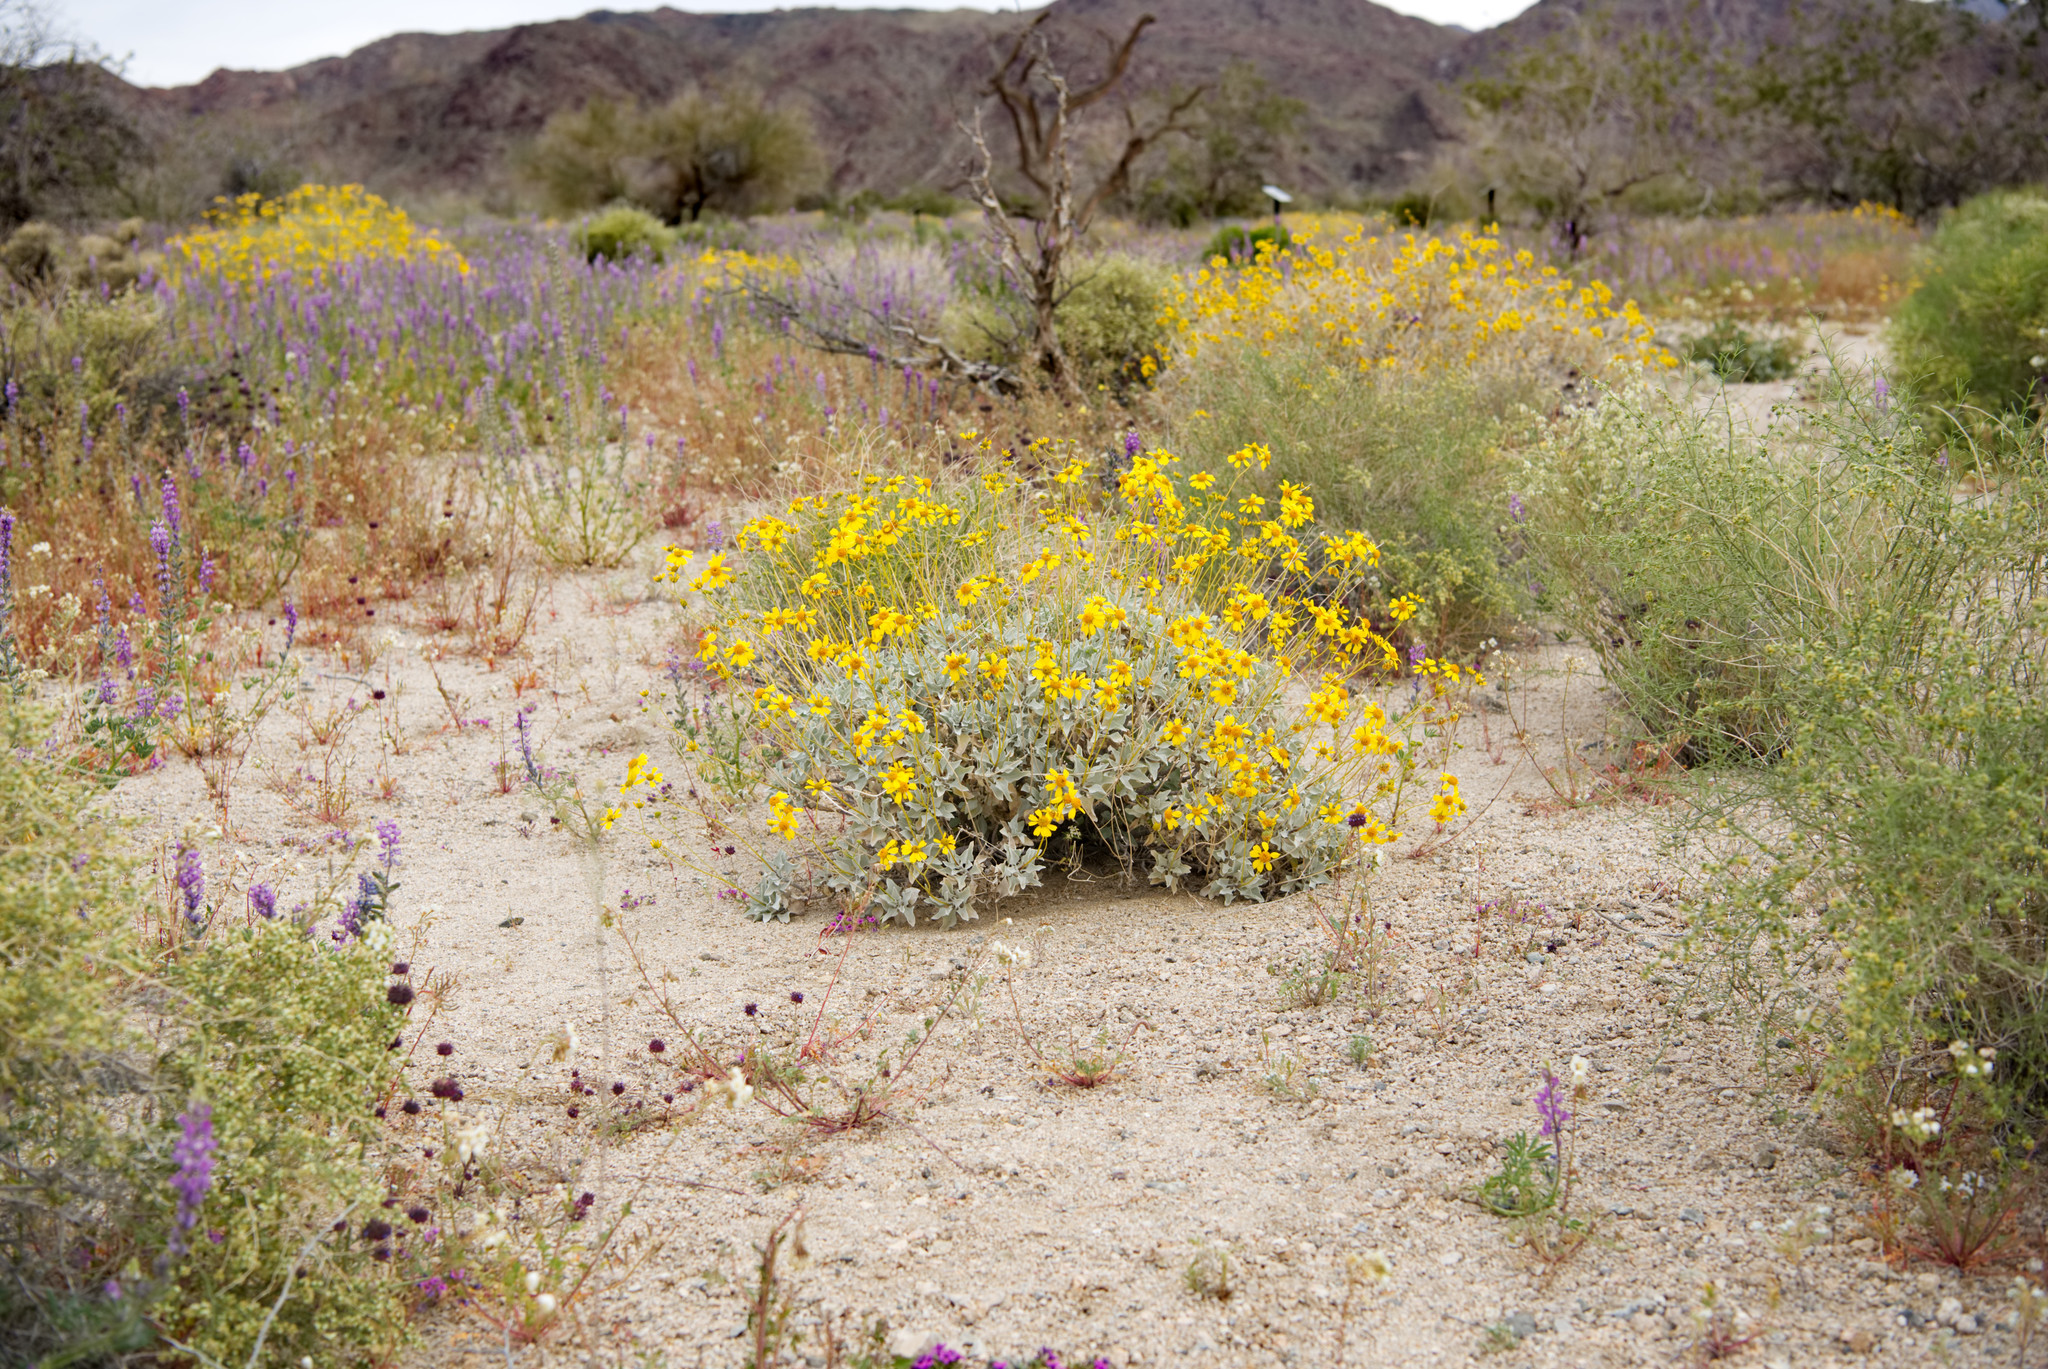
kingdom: Plantae
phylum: Tracheophyta
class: Magnoliopsida
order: Asterales
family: Asteraceae
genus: Encelia
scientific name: Encelia farinosa
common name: Brittlebush
